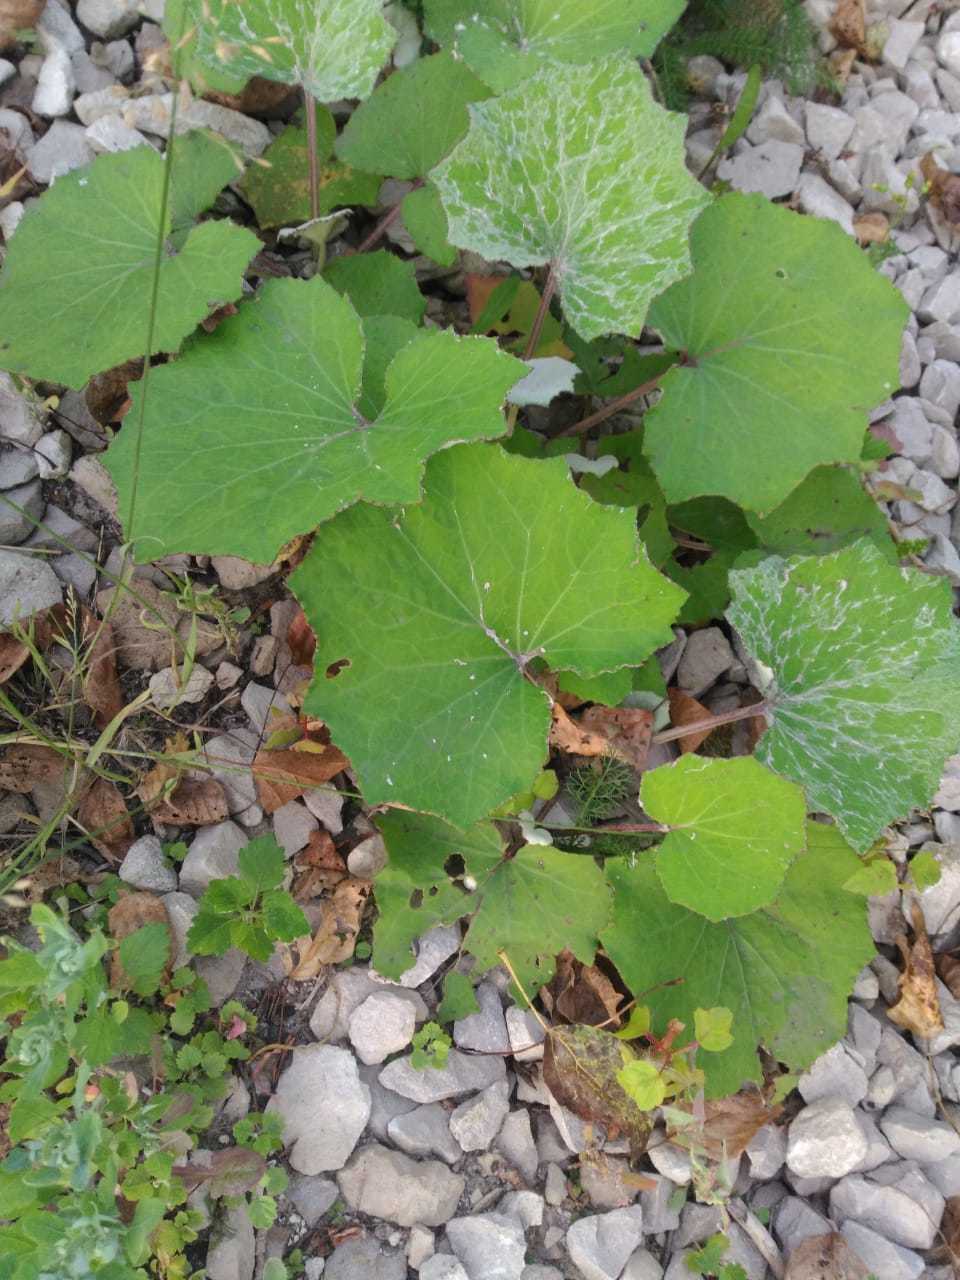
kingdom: Plantae
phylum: Tracheophyta
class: Magnoliopsida
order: Asterales
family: Asteraceae
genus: Tussilago
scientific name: Tussilago farfara
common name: Coltsfoot
